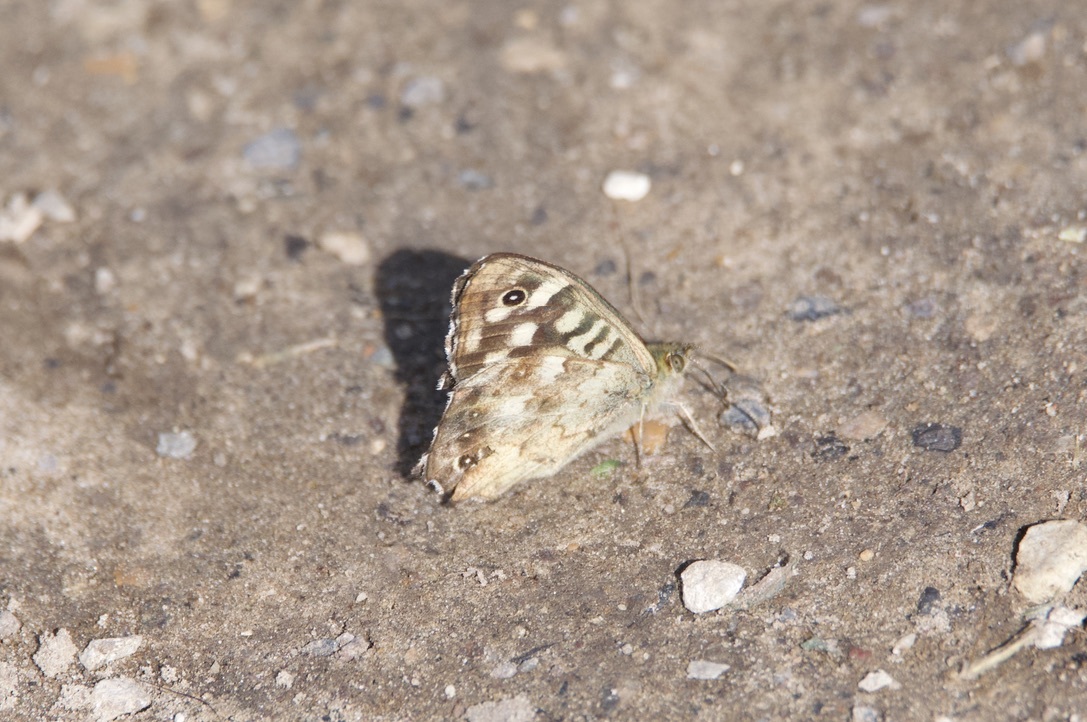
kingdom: Animalia
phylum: Arthropoda
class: Insecta
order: Lepidoptera
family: Nymphalidae
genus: Pararge
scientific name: Pararge aegeria
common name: Speckled wood
